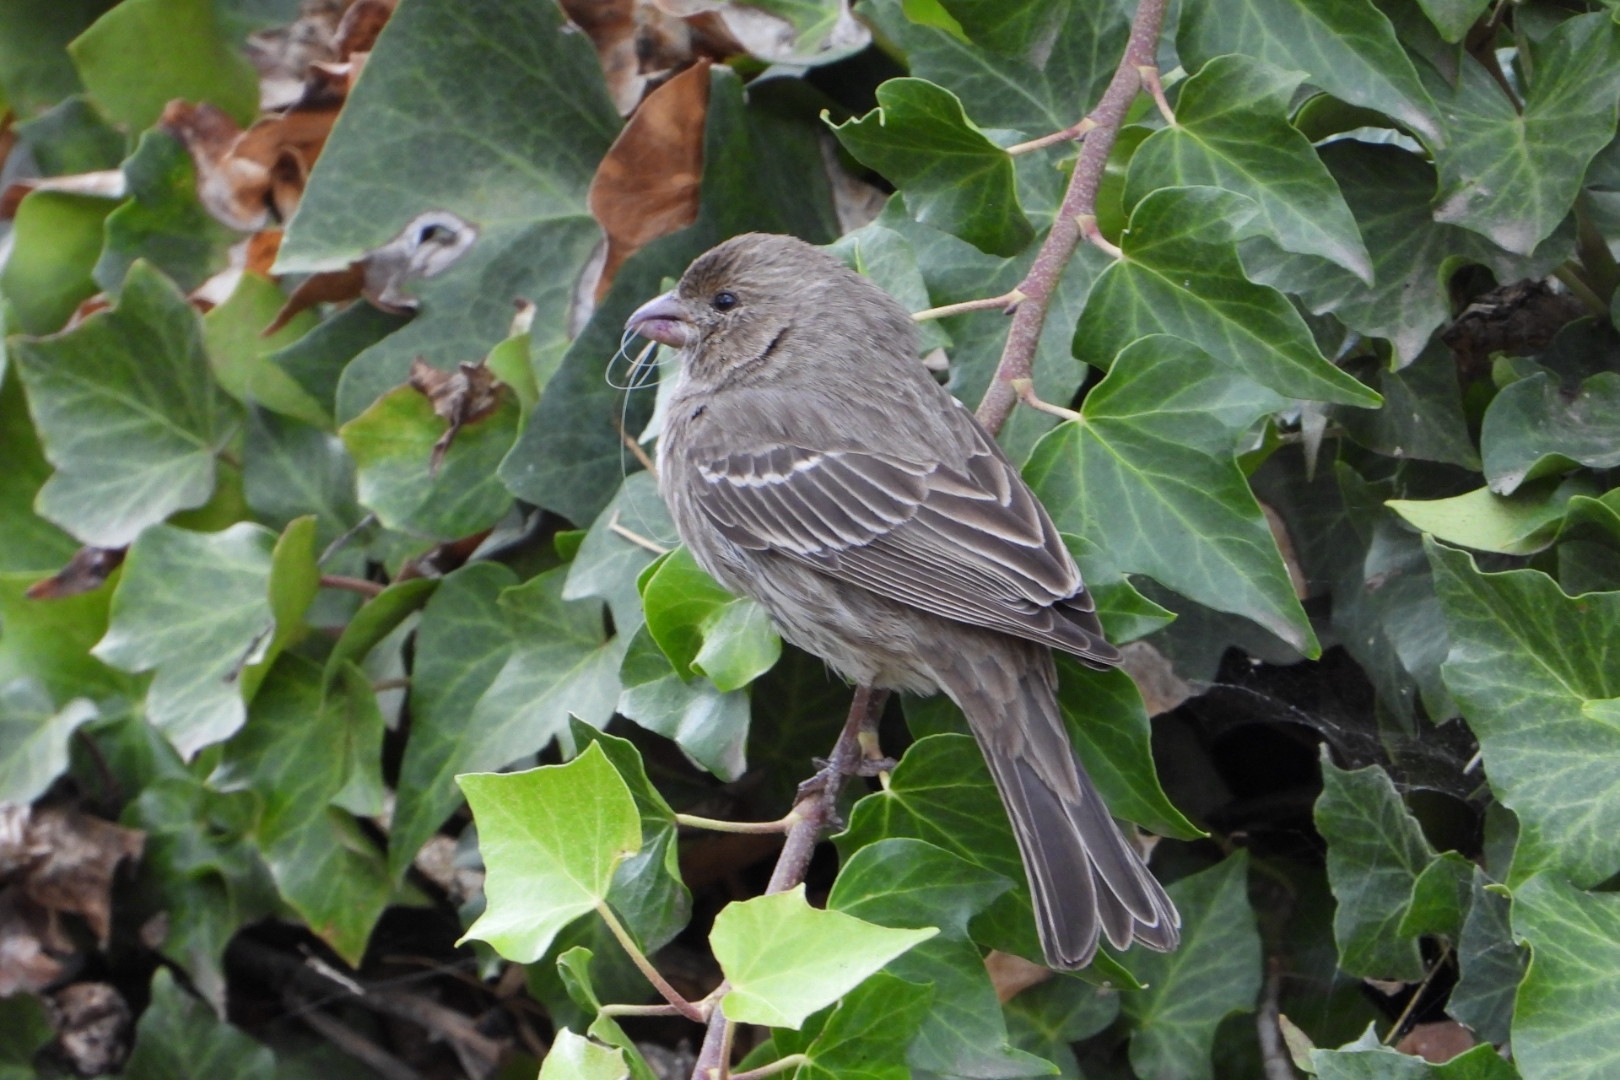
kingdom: Animalia
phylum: Chordata
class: Aves
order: Passeriformes
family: Fringillidae
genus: Haemorhous
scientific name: Haemorhous mexicanus
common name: House finch
